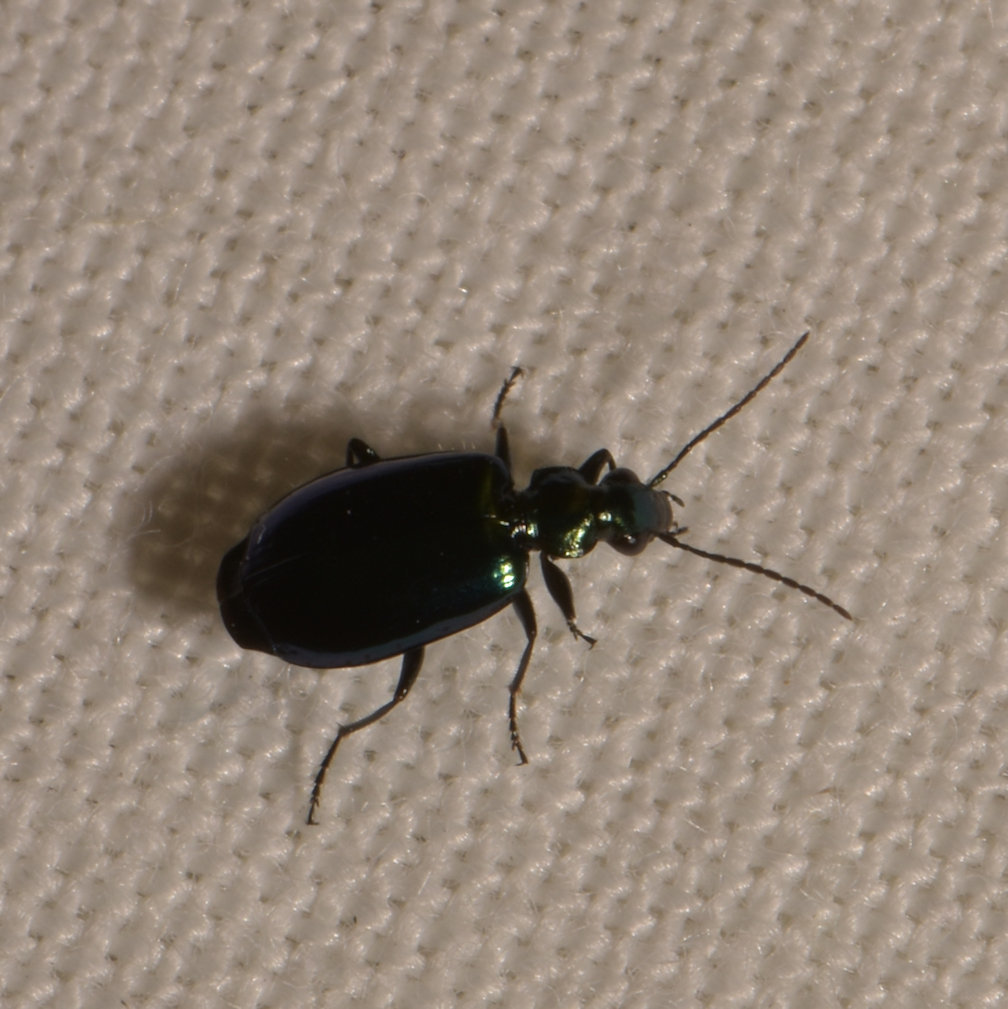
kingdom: Animalia
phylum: Arthropoda
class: Insecta
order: Coleoptera
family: Carabidae
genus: Lebia
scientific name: Lebia viridis
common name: Flower lebia beetle
